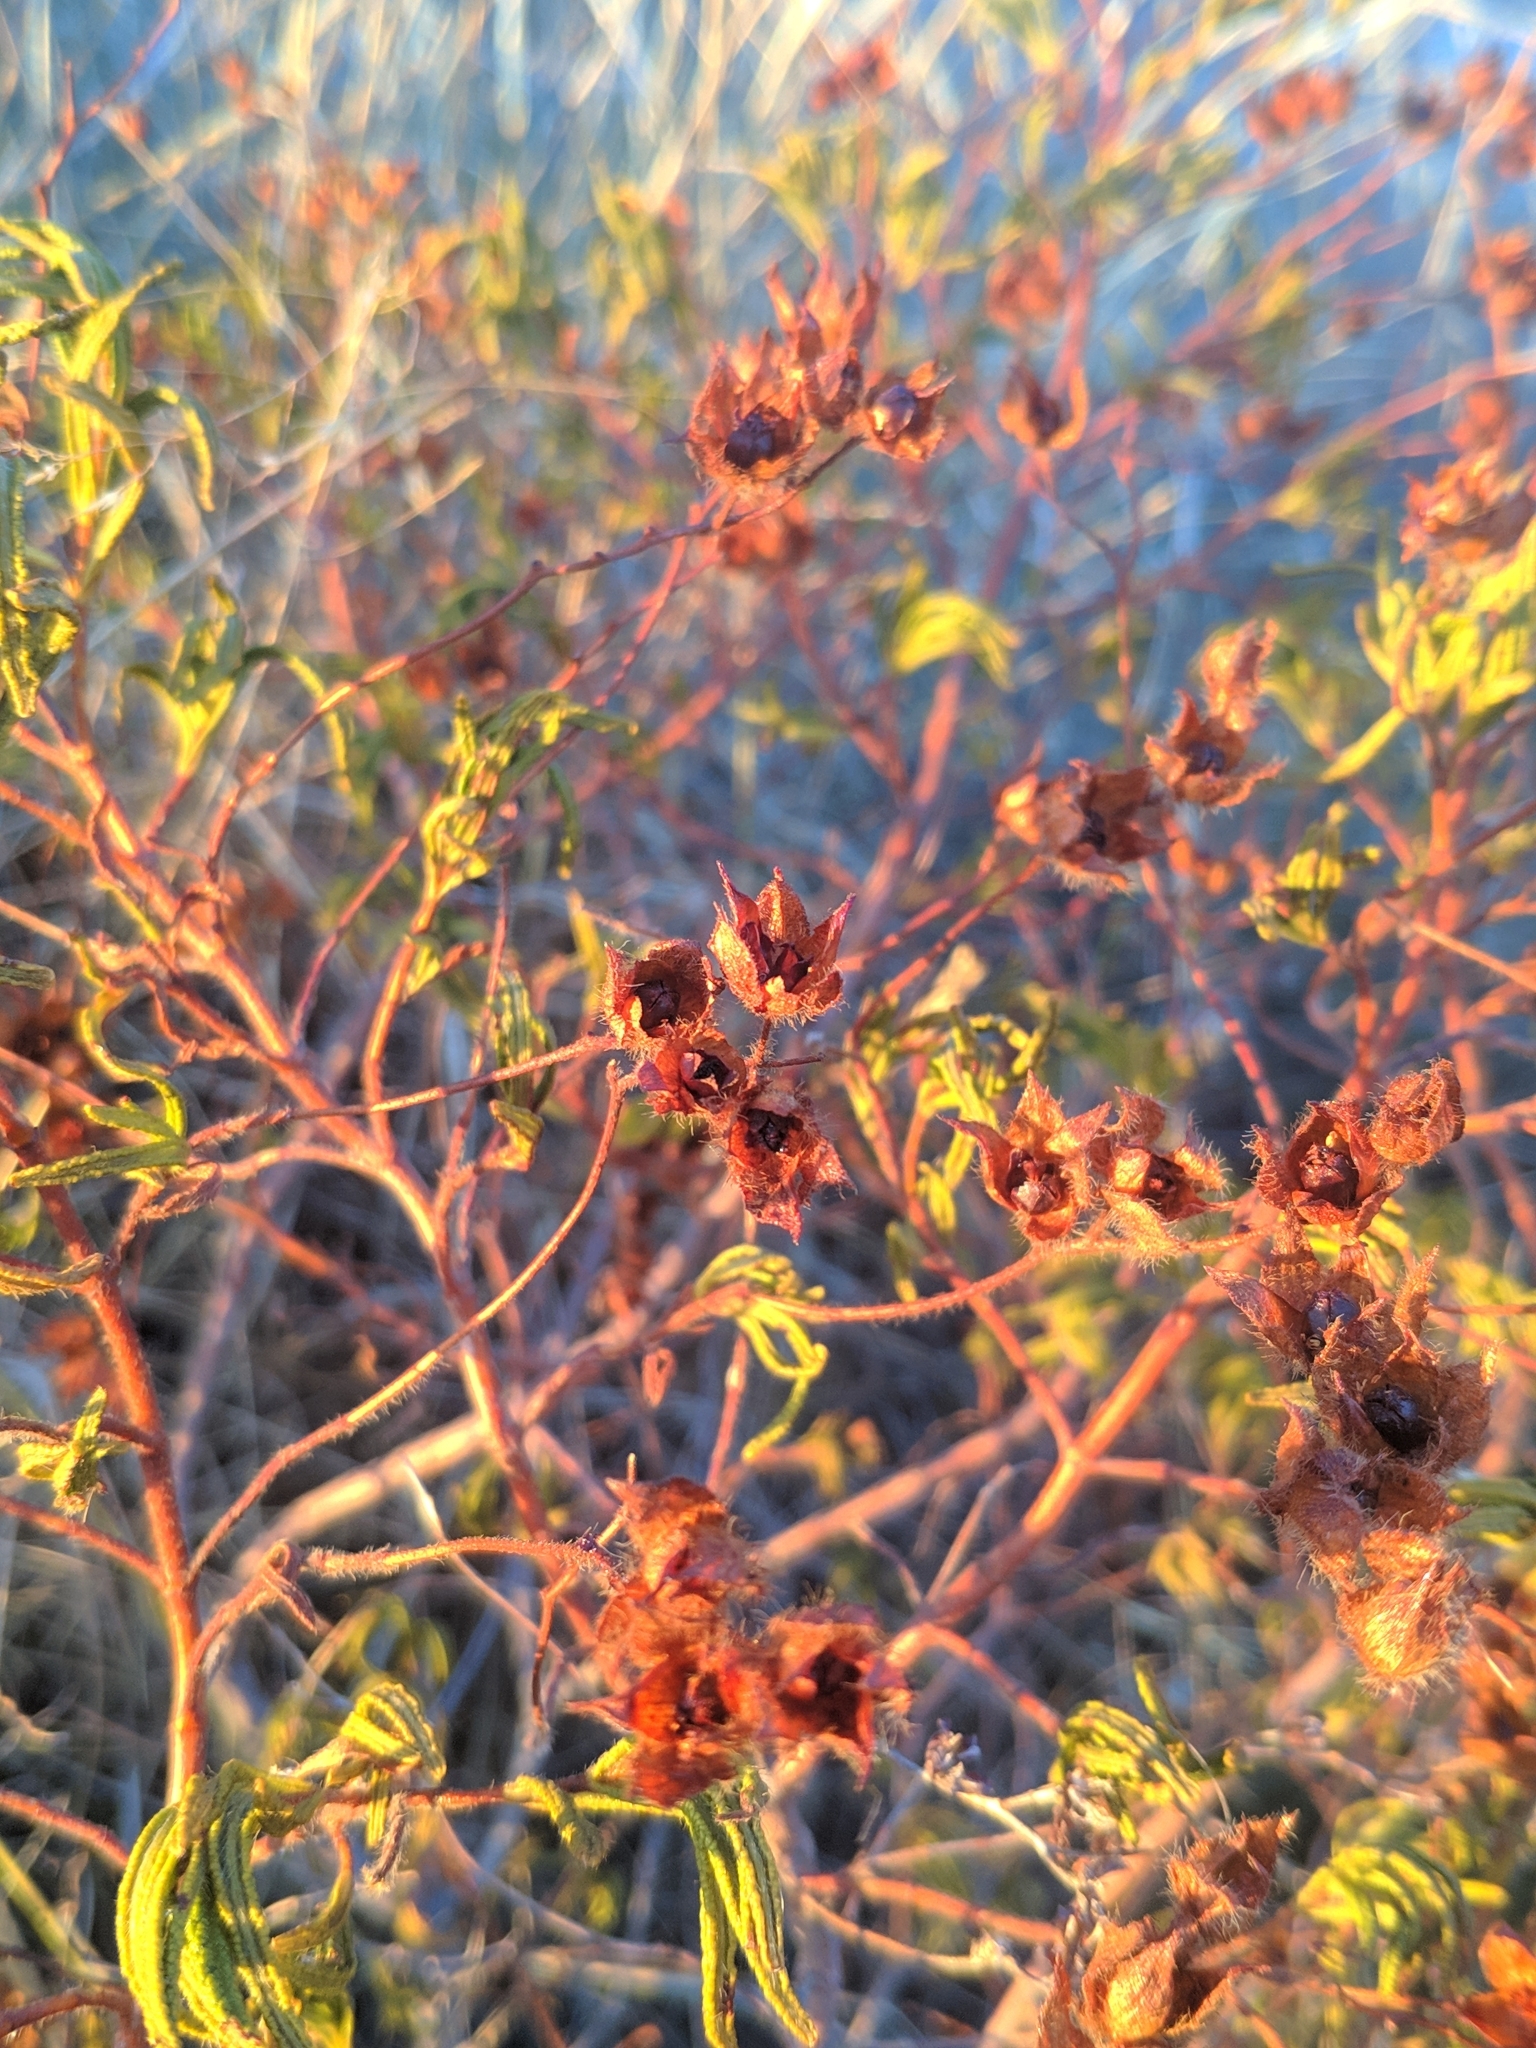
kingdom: Plantae
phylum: Tracheophyta
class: Magnoliopsida
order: Malvales
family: Cistaceae
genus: Cistus
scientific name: Cistus monspeliensis
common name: Montpelier cistus
